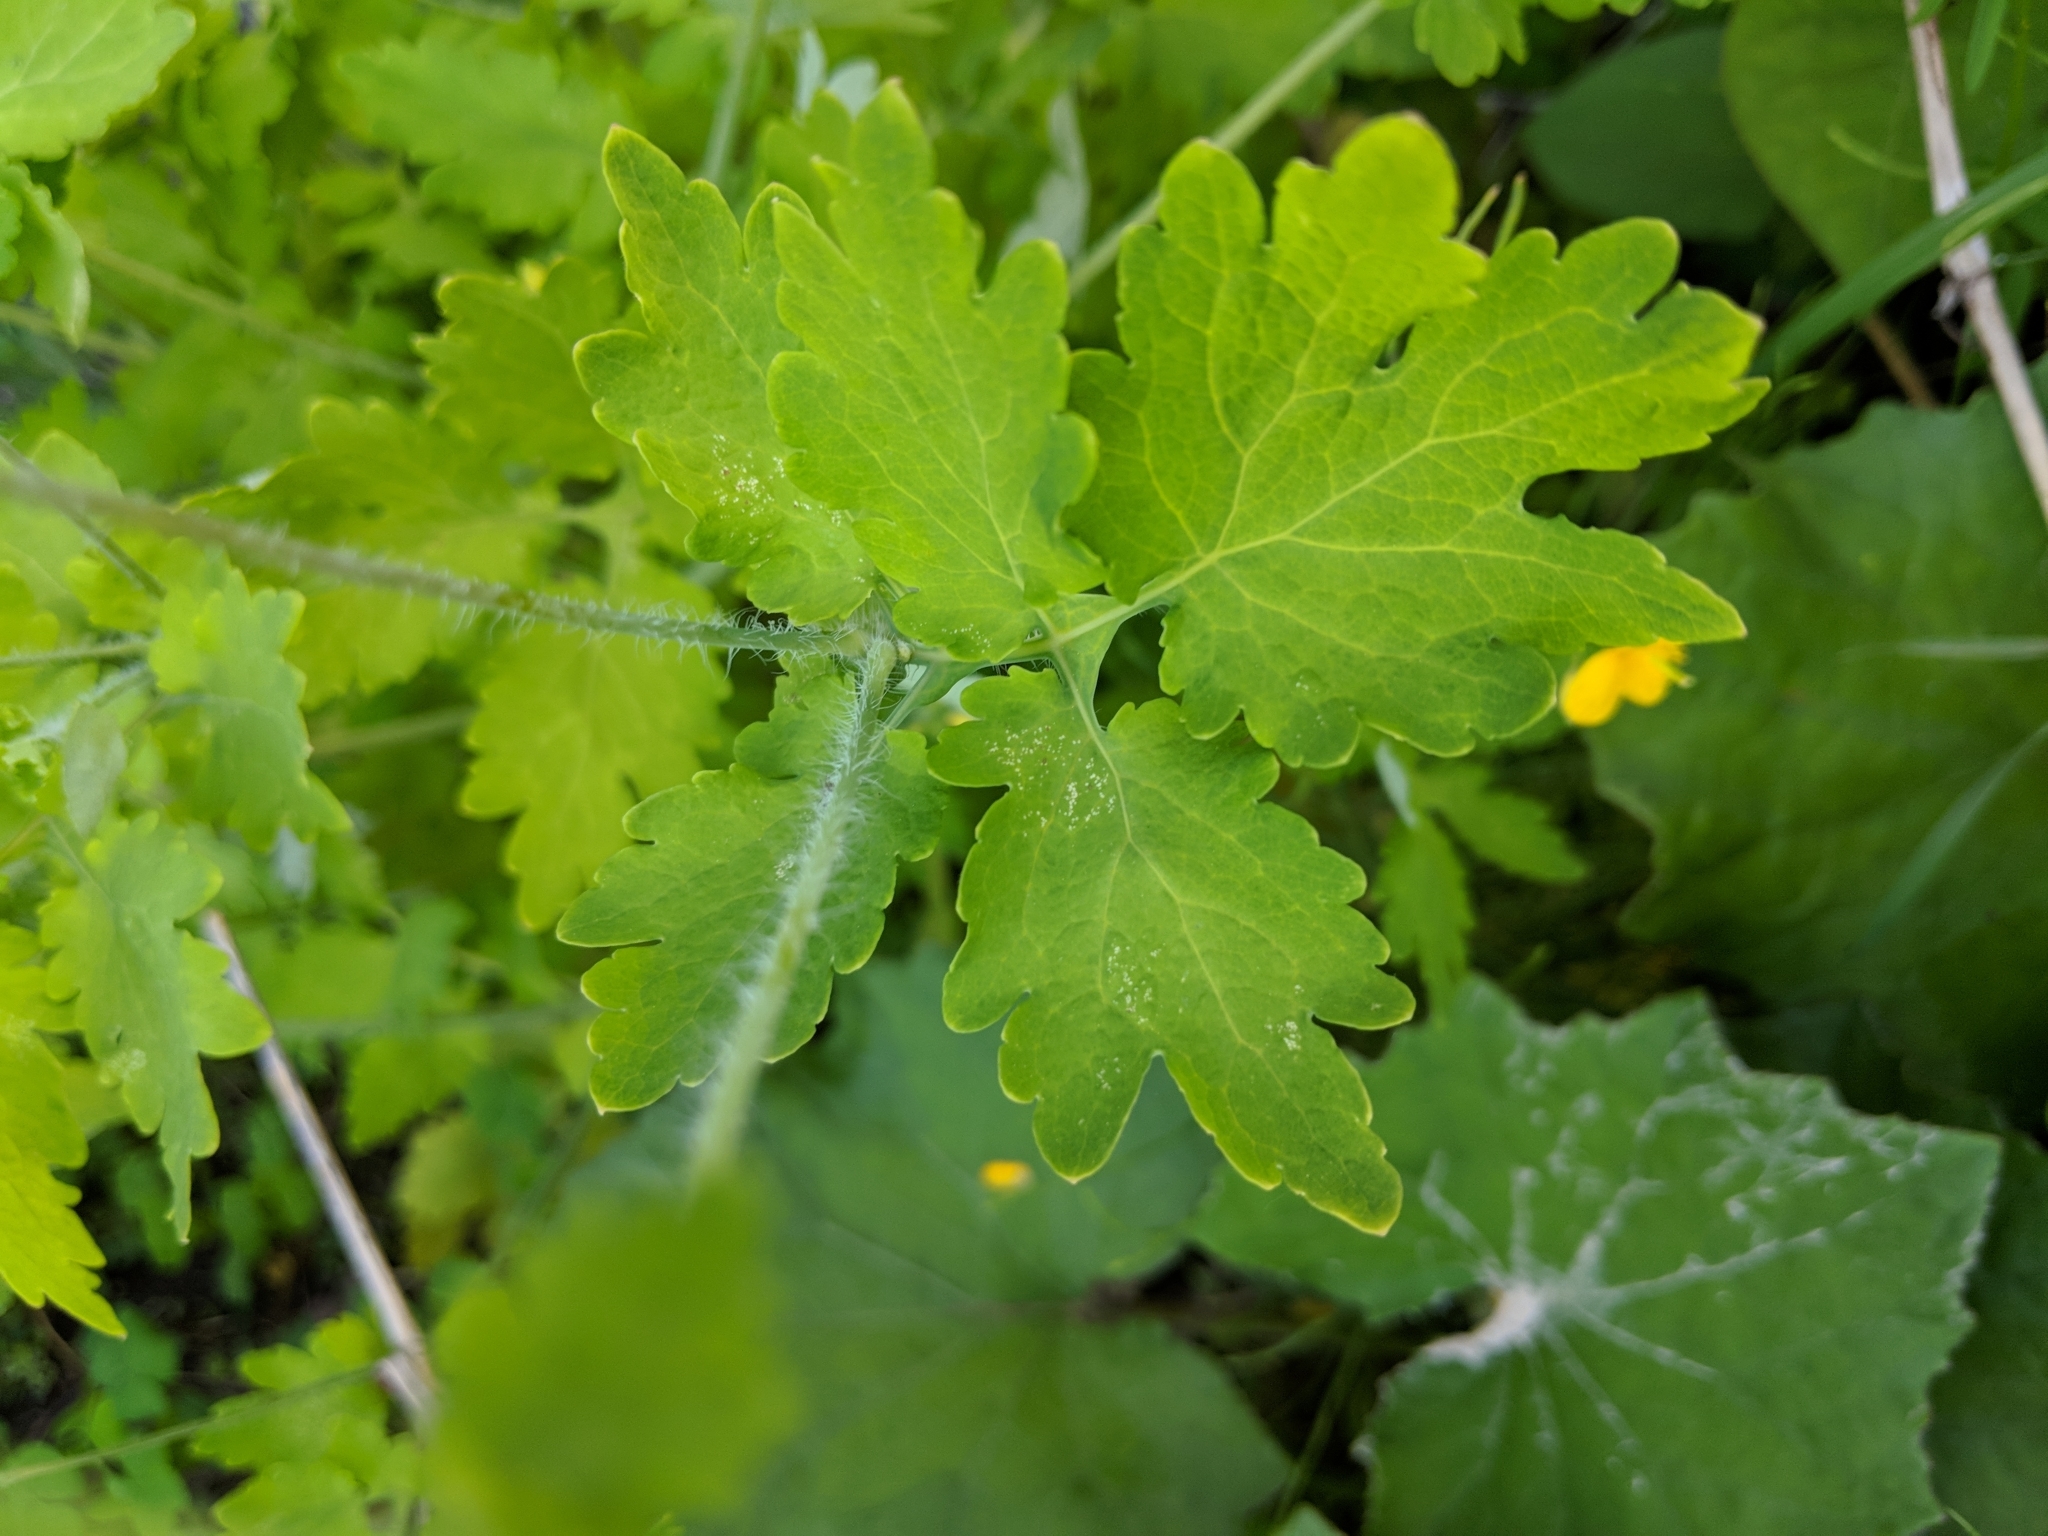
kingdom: Plantae
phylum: Tracheophyta
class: Magnoliopsida
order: Ranunculales
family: Papaveraceae
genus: Chelidonium
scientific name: Chelidonium majus
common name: Greater celandine
